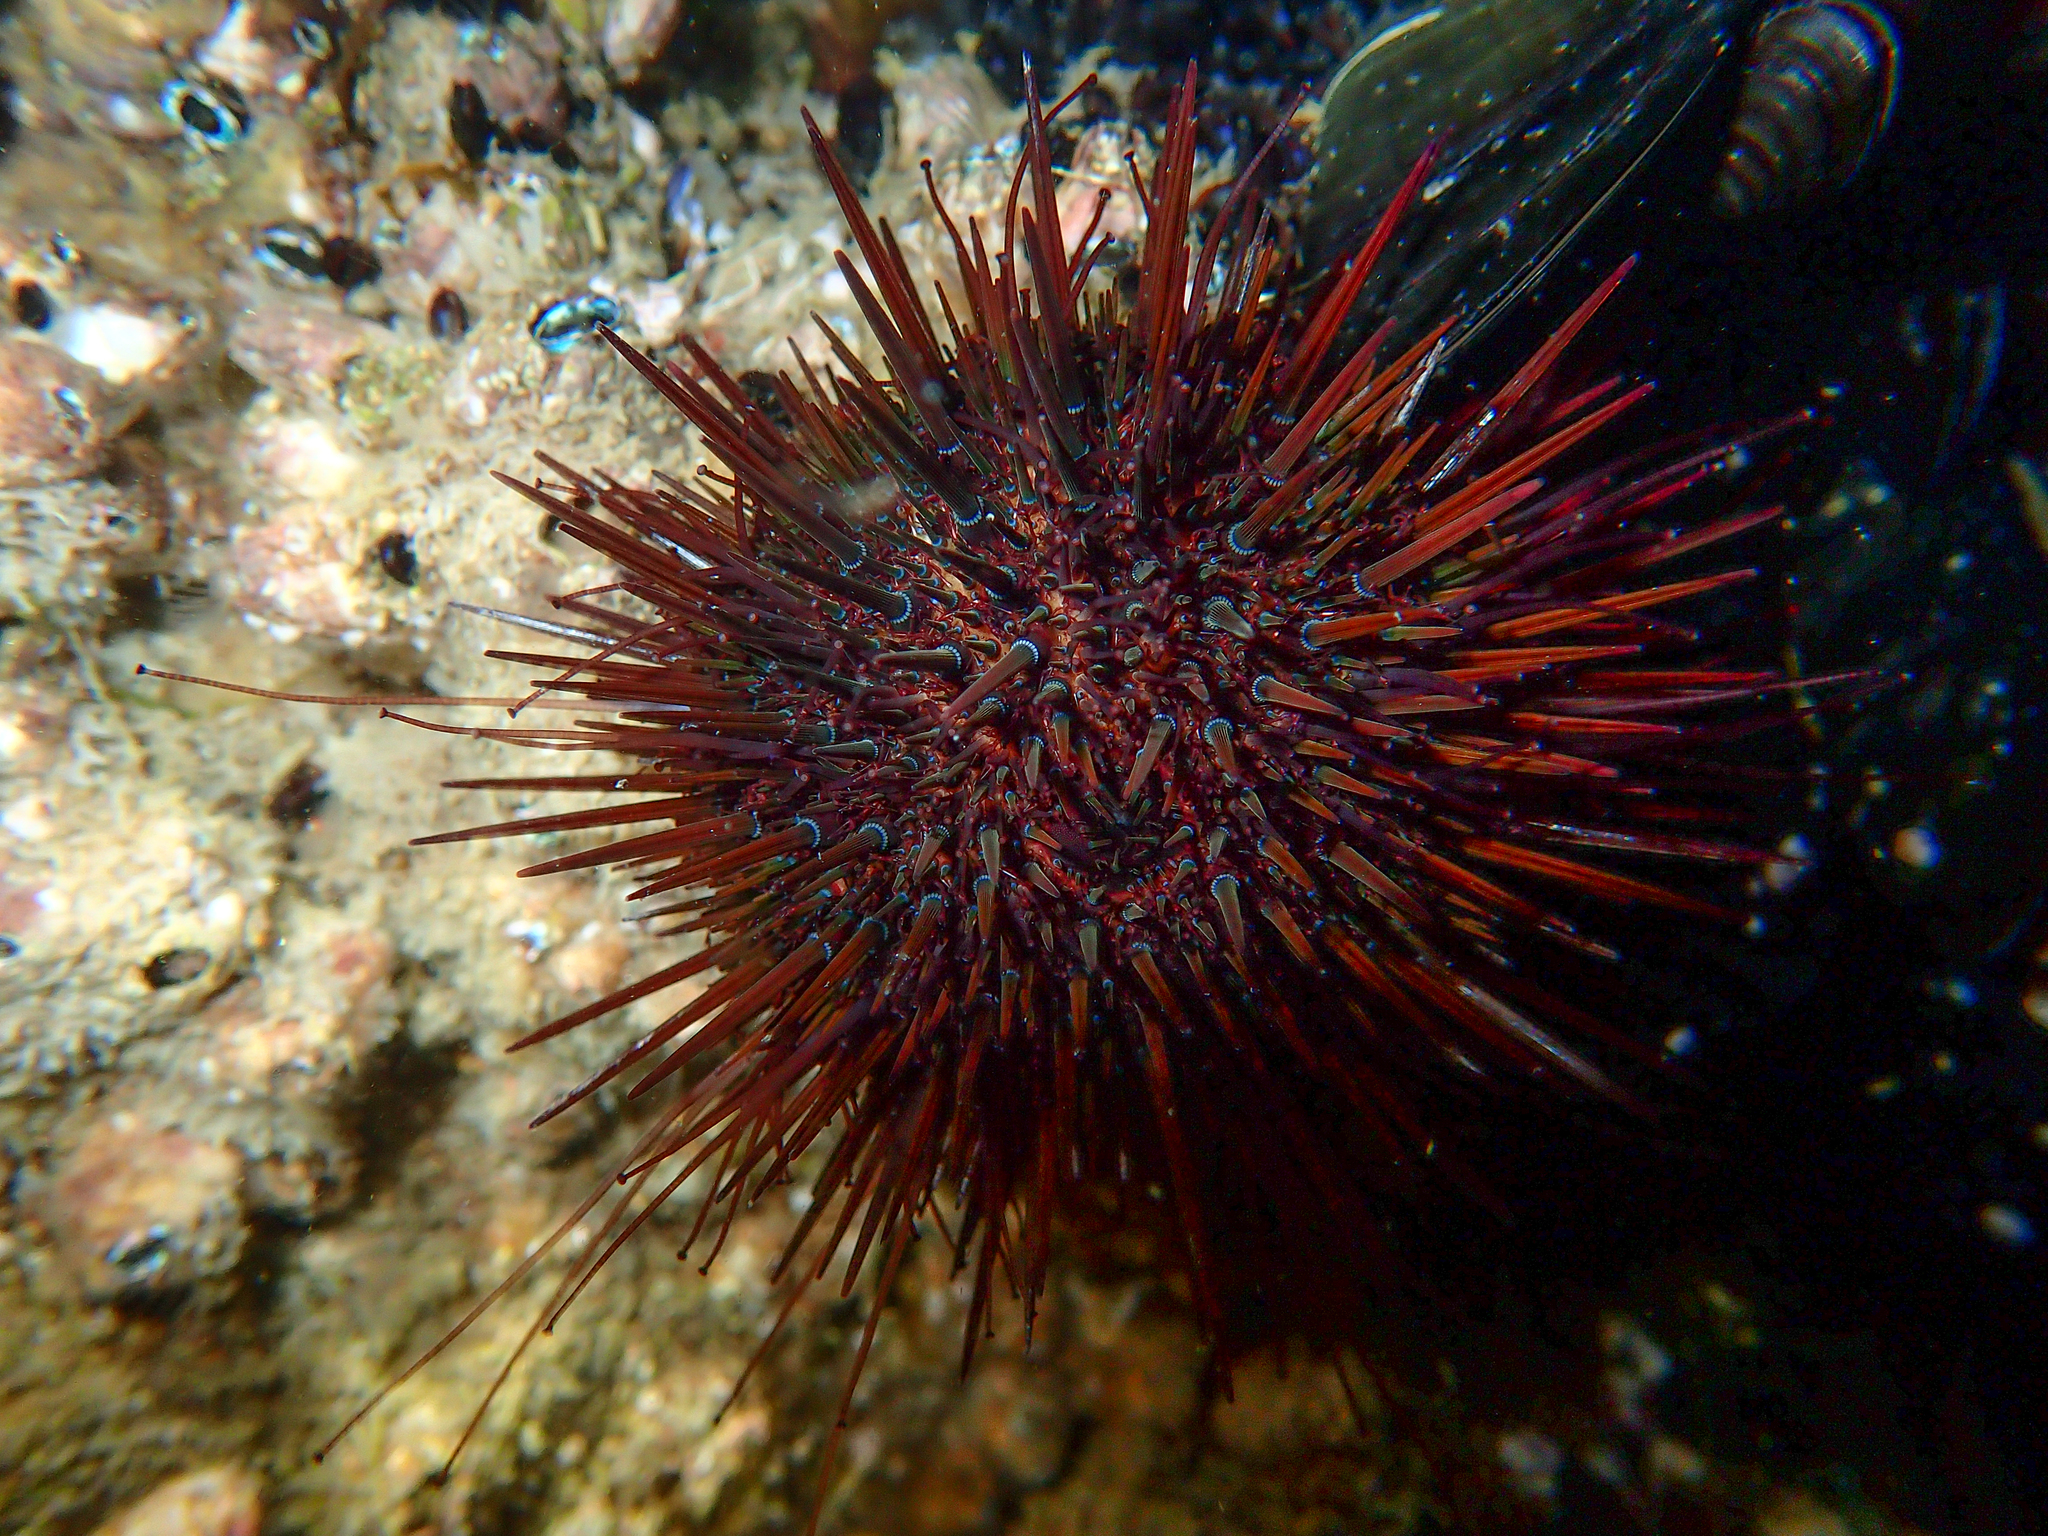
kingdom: Animalia
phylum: Echinodermata
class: Echinoidea
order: Camarodonta
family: Parechinidae
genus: Paracentrotus
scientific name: Paracentrotus lividus
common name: Purple sea urchin
